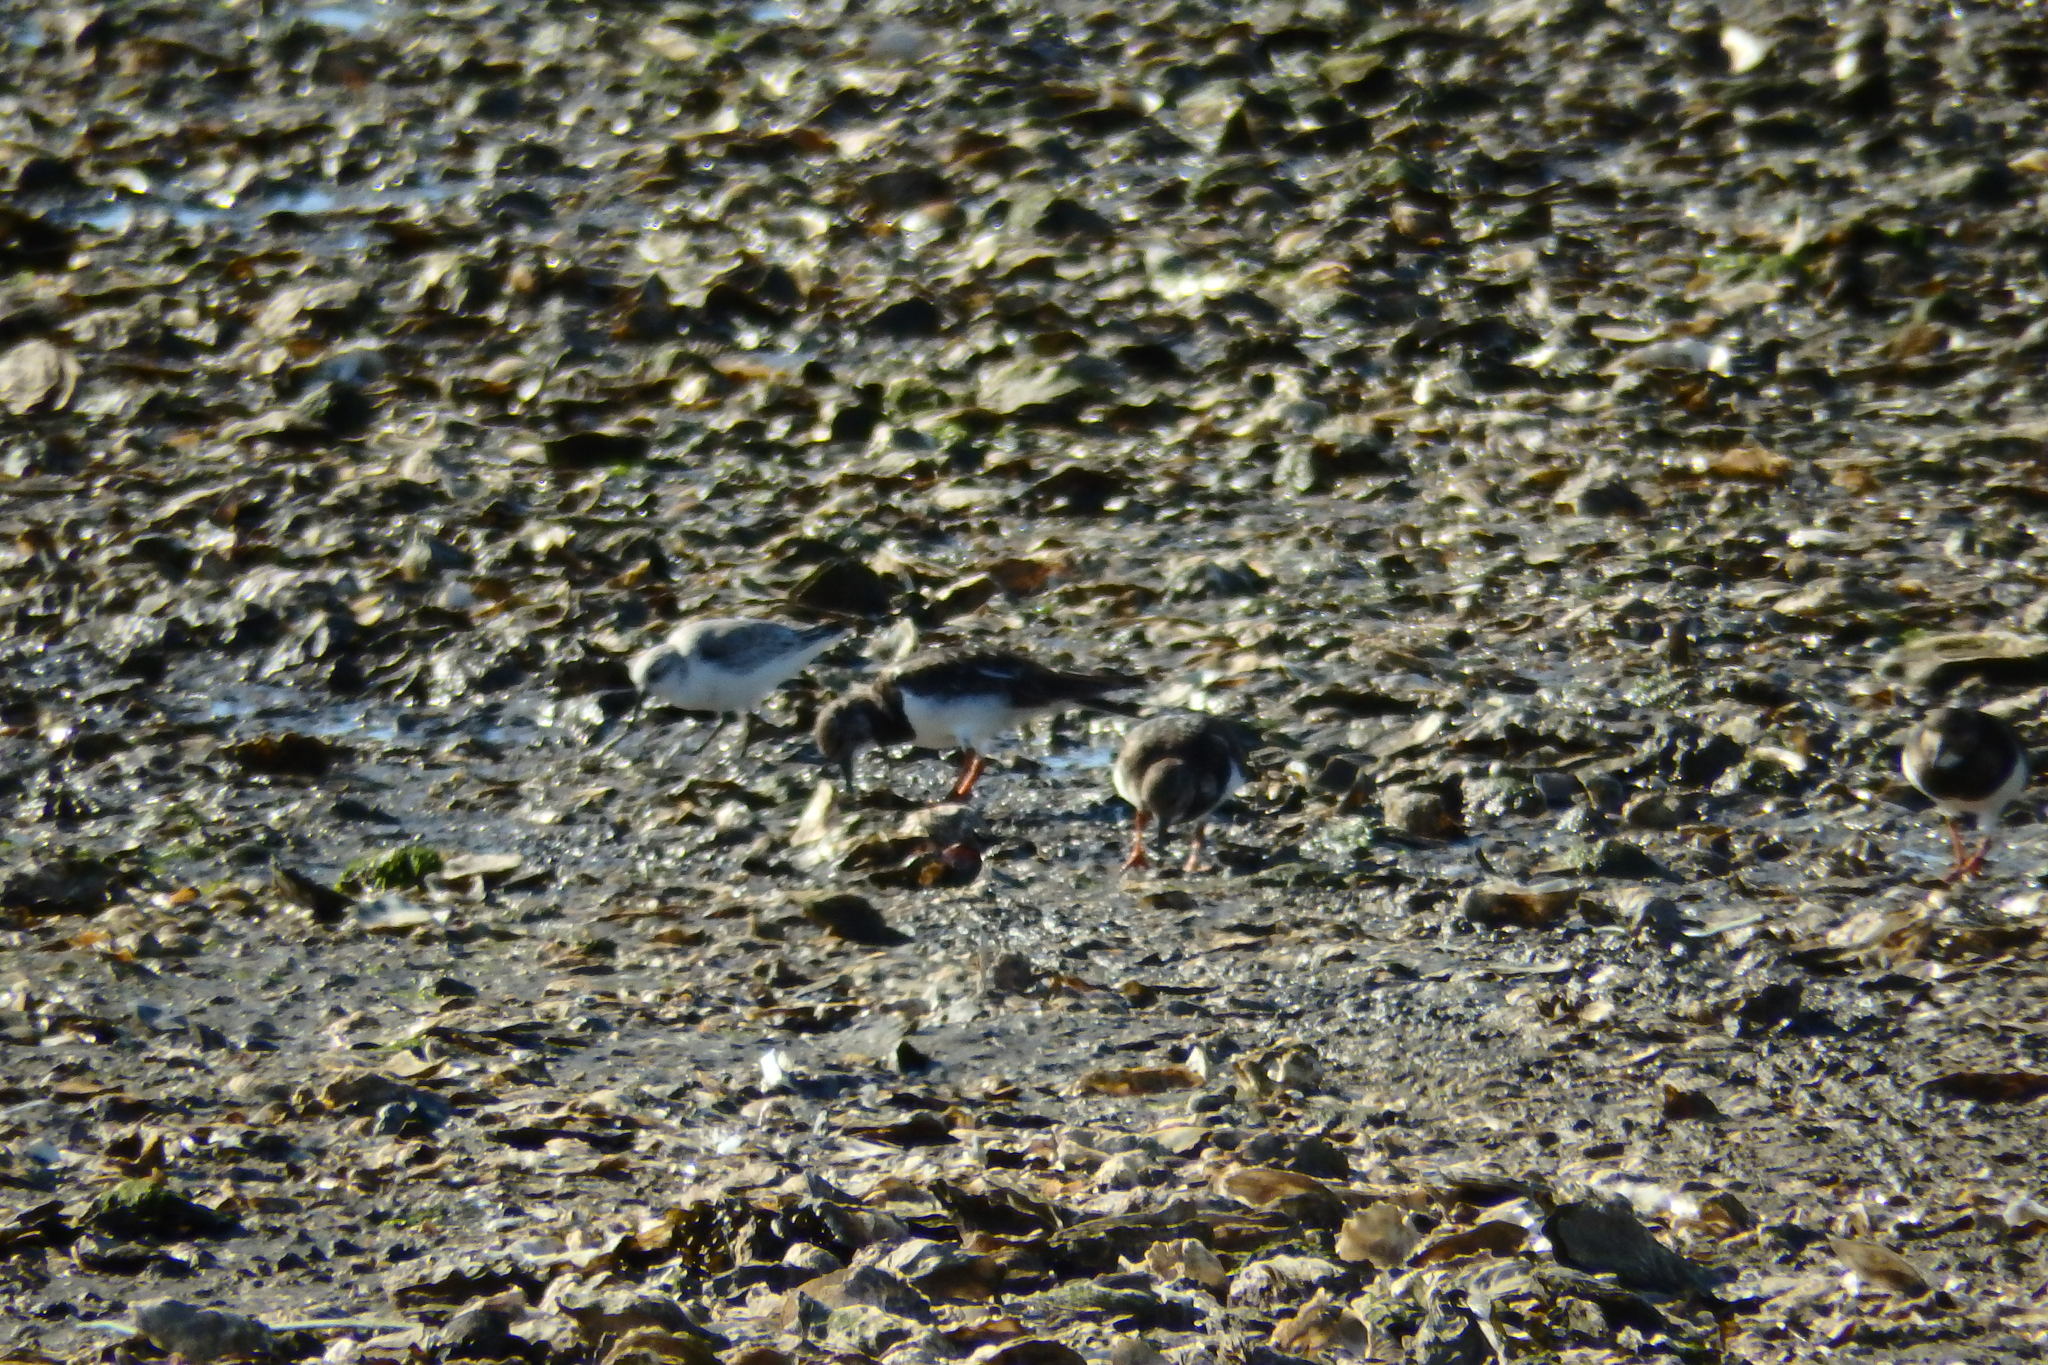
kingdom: Animalia
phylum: Chordata
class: Aves
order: Charadriiformes
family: Scolopacidae
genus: Calidris
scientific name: Calidris alba
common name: Sanderling
